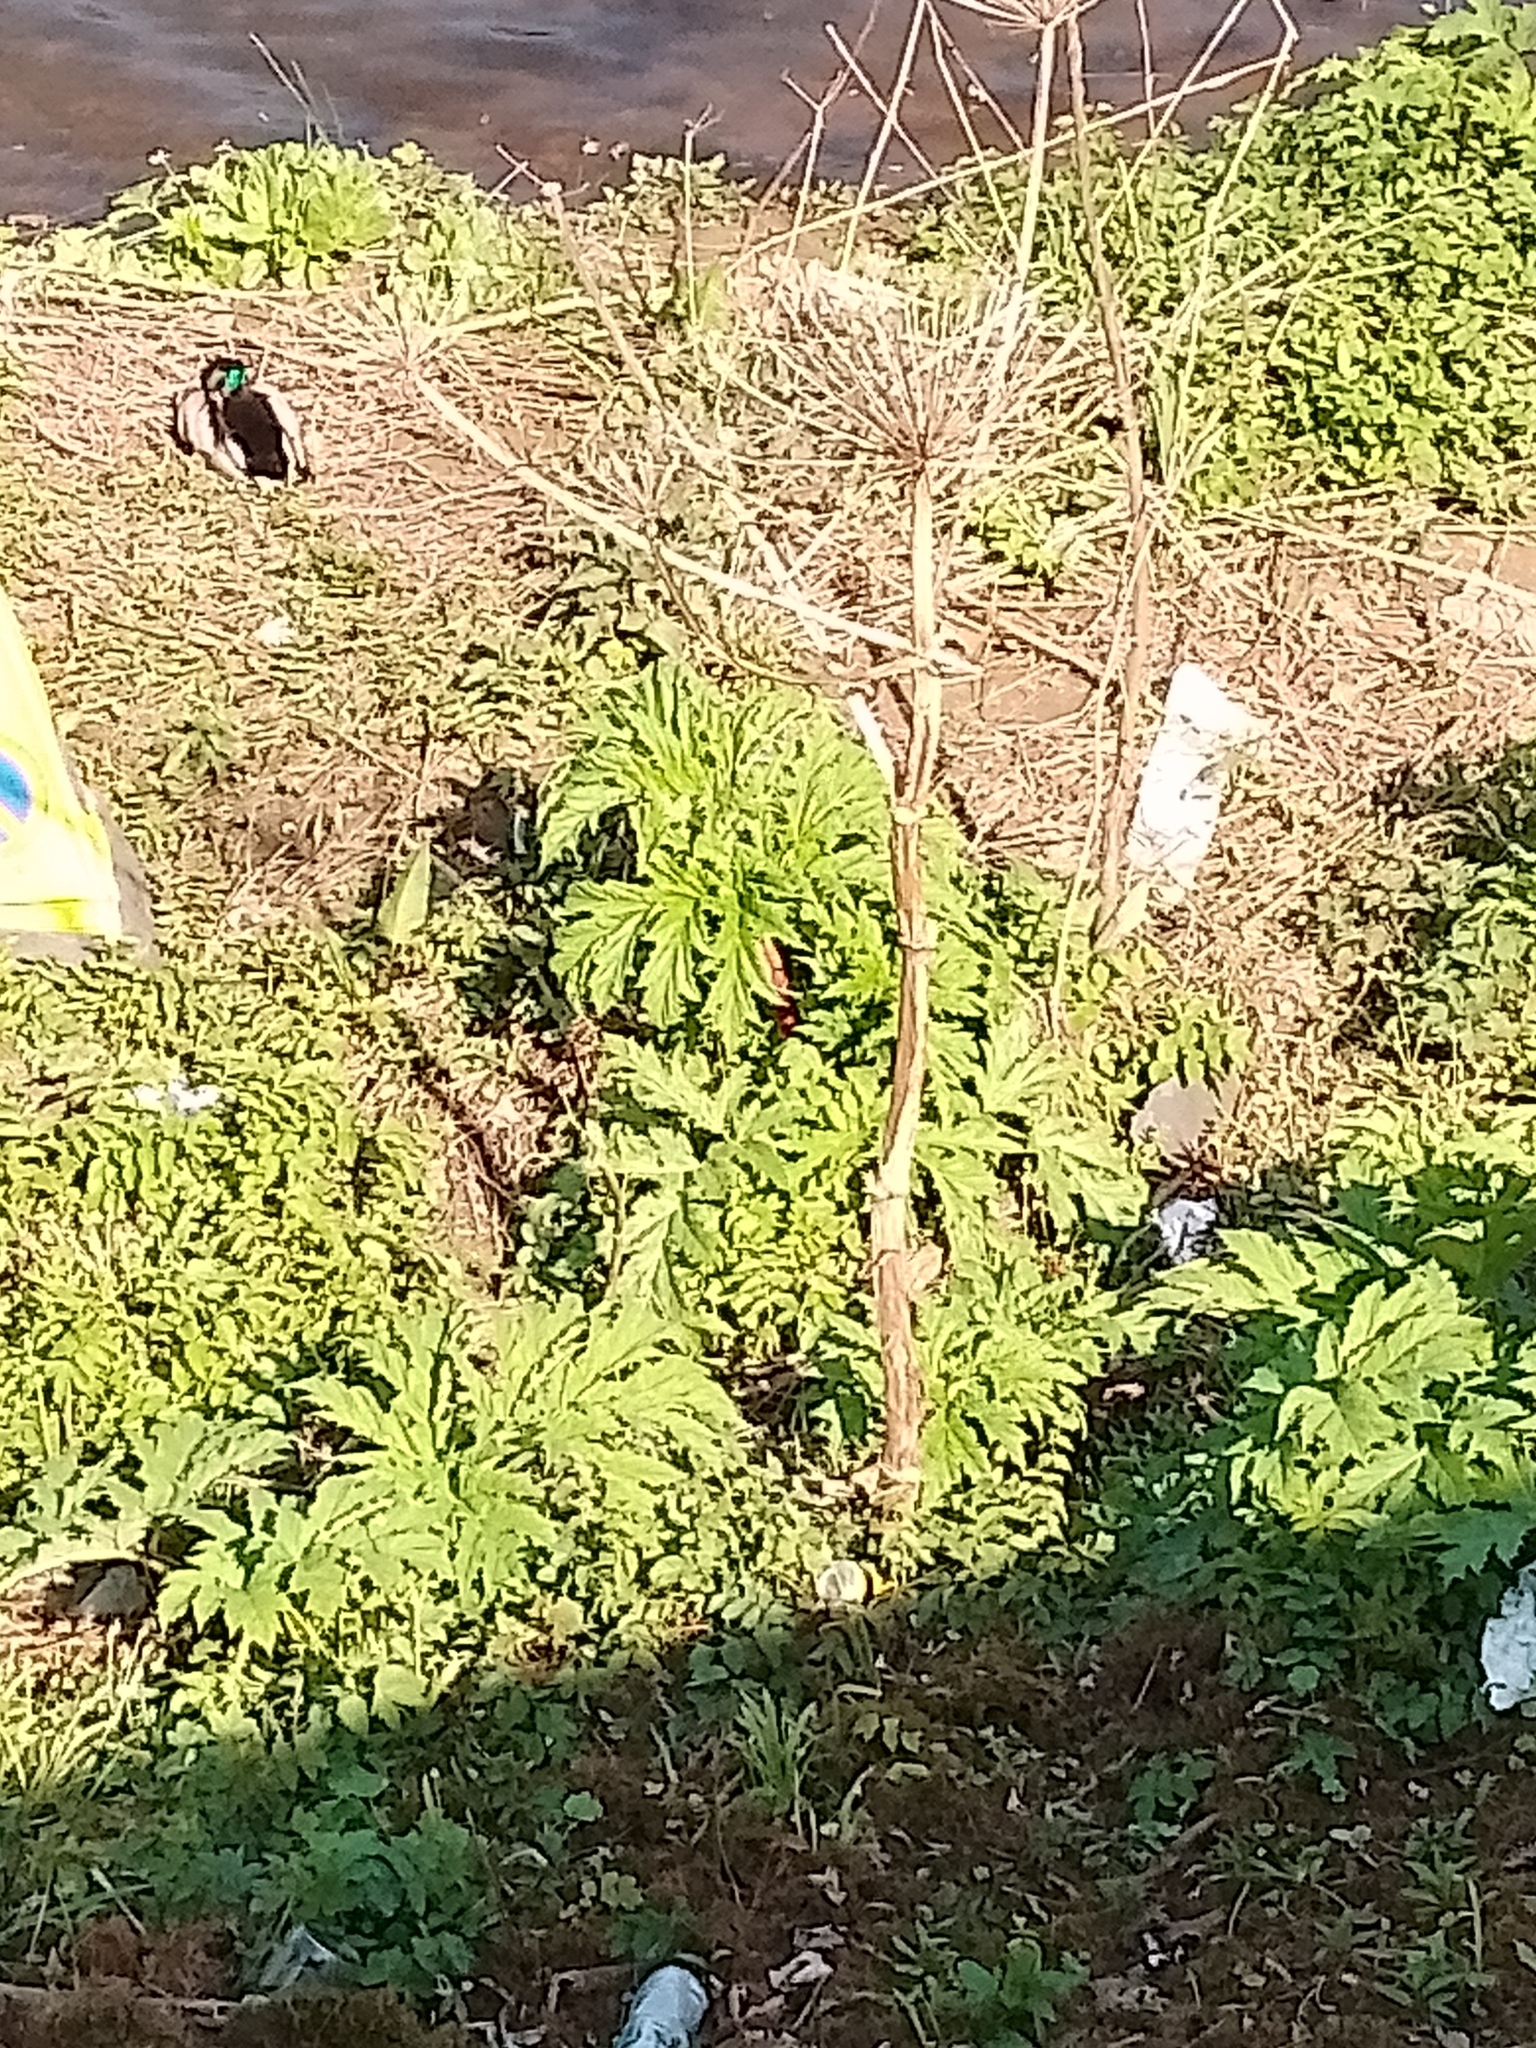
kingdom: Plantae
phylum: Tracheophyta
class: Magnoliopsida
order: Apiales
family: Apiaceae
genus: Heracleum
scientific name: Heracleum mantegazzianum
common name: Giant hogweed
